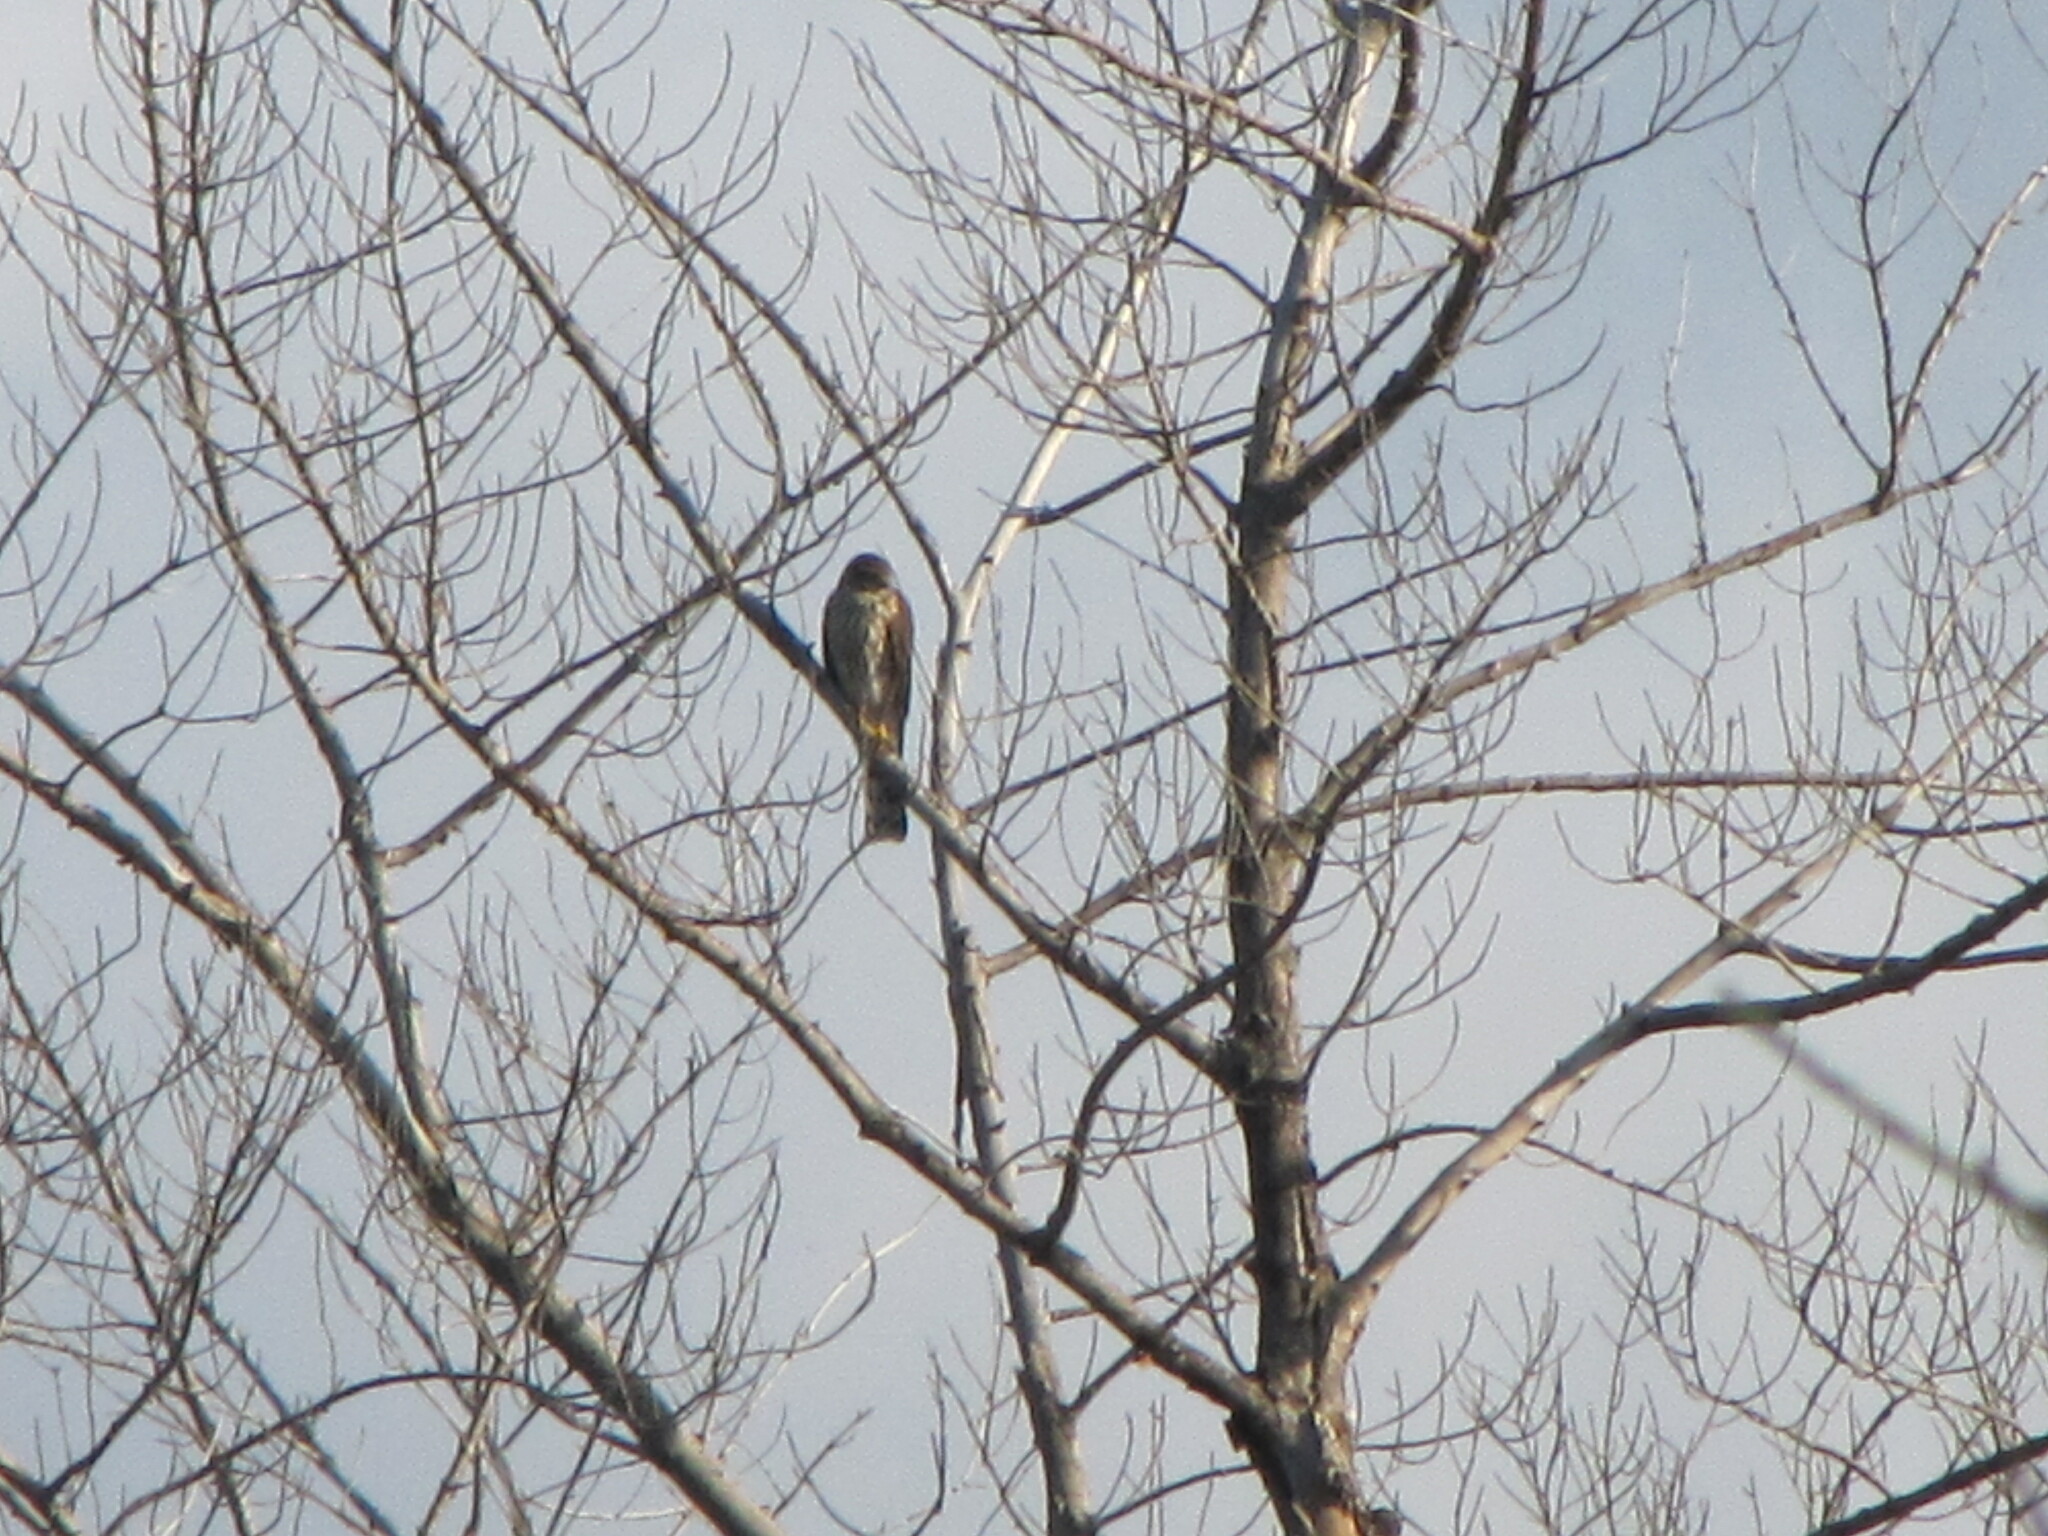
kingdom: Animalia
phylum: Chordata
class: Aves
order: Accipitriformes
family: Accipitridae
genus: Accipiter
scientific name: Accipiter cooperii
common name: Cooper's hawk
